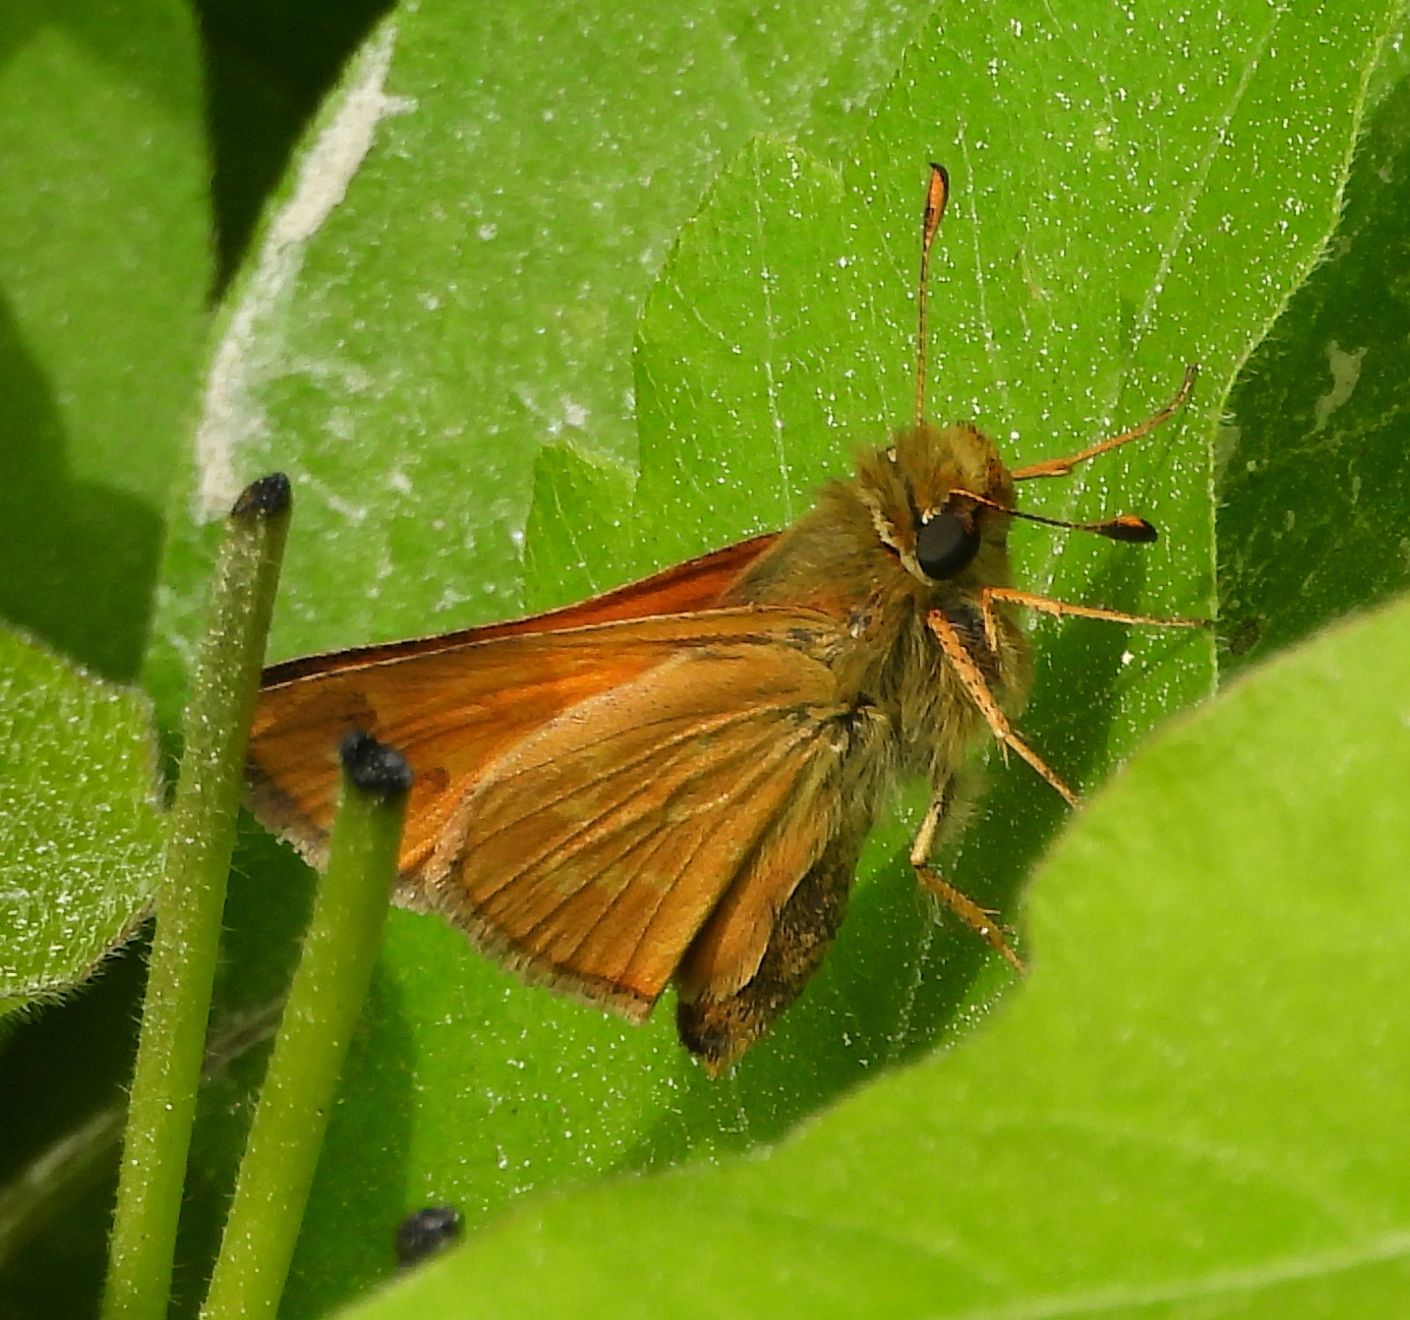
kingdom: Animalia
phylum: Arthropoda
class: Insecta
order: Lepidoptera
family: Hesperiidae
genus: Hesperia
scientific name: Hesperia sassacus
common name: Indian skipper
